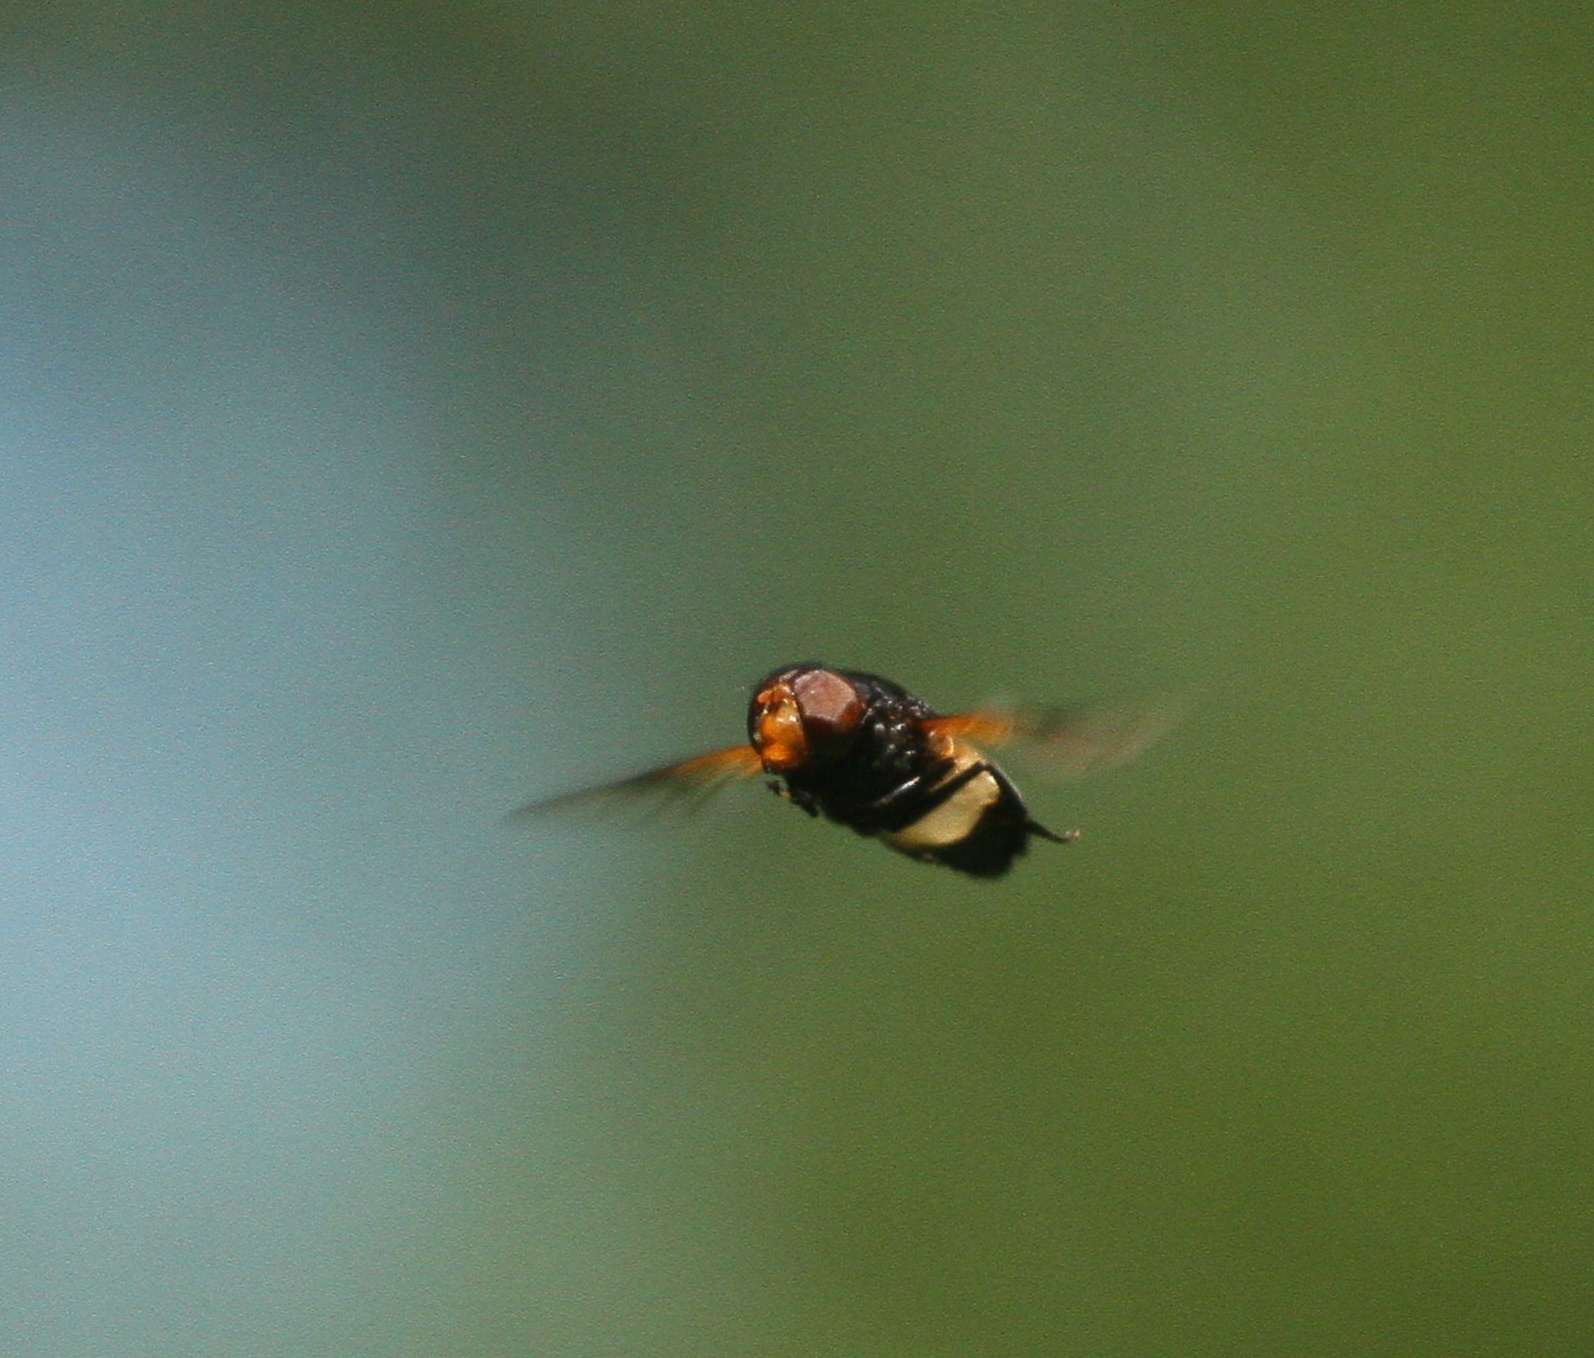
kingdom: Animalia
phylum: Arthropoda
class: Insecta
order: Diptera
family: Syrphidae
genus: Volucella
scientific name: Volucella pellucens
